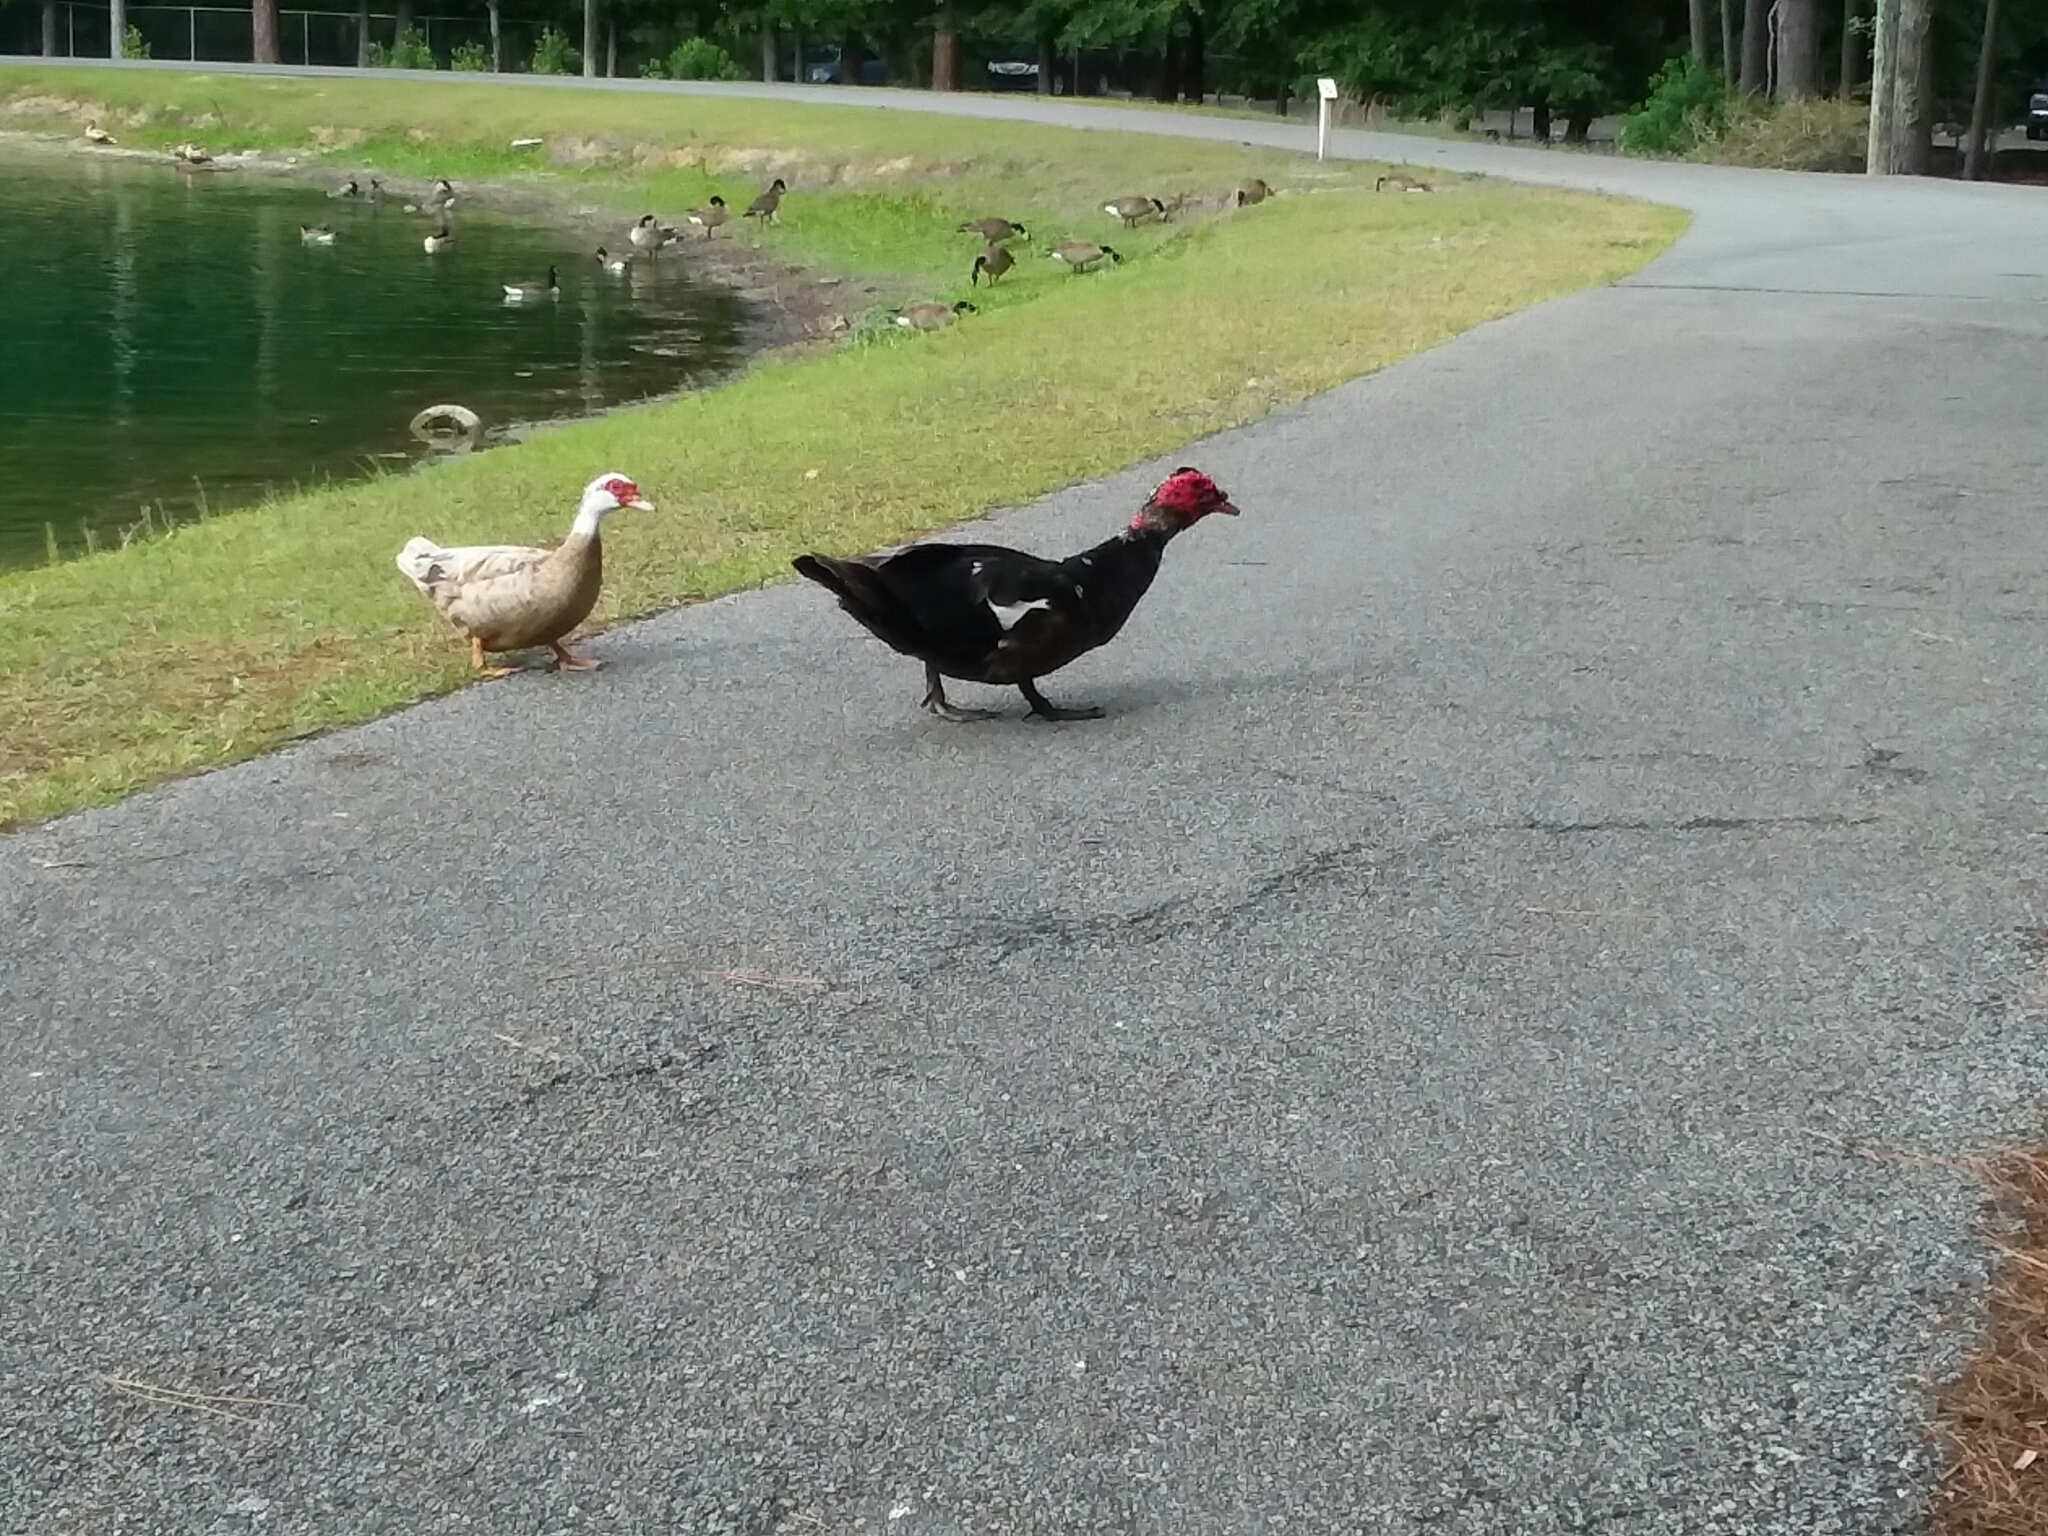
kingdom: Animalia
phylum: Chordata
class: Aves
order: Anseriformes
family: Anatidae
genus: Cairina
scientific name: Cairina moschata
